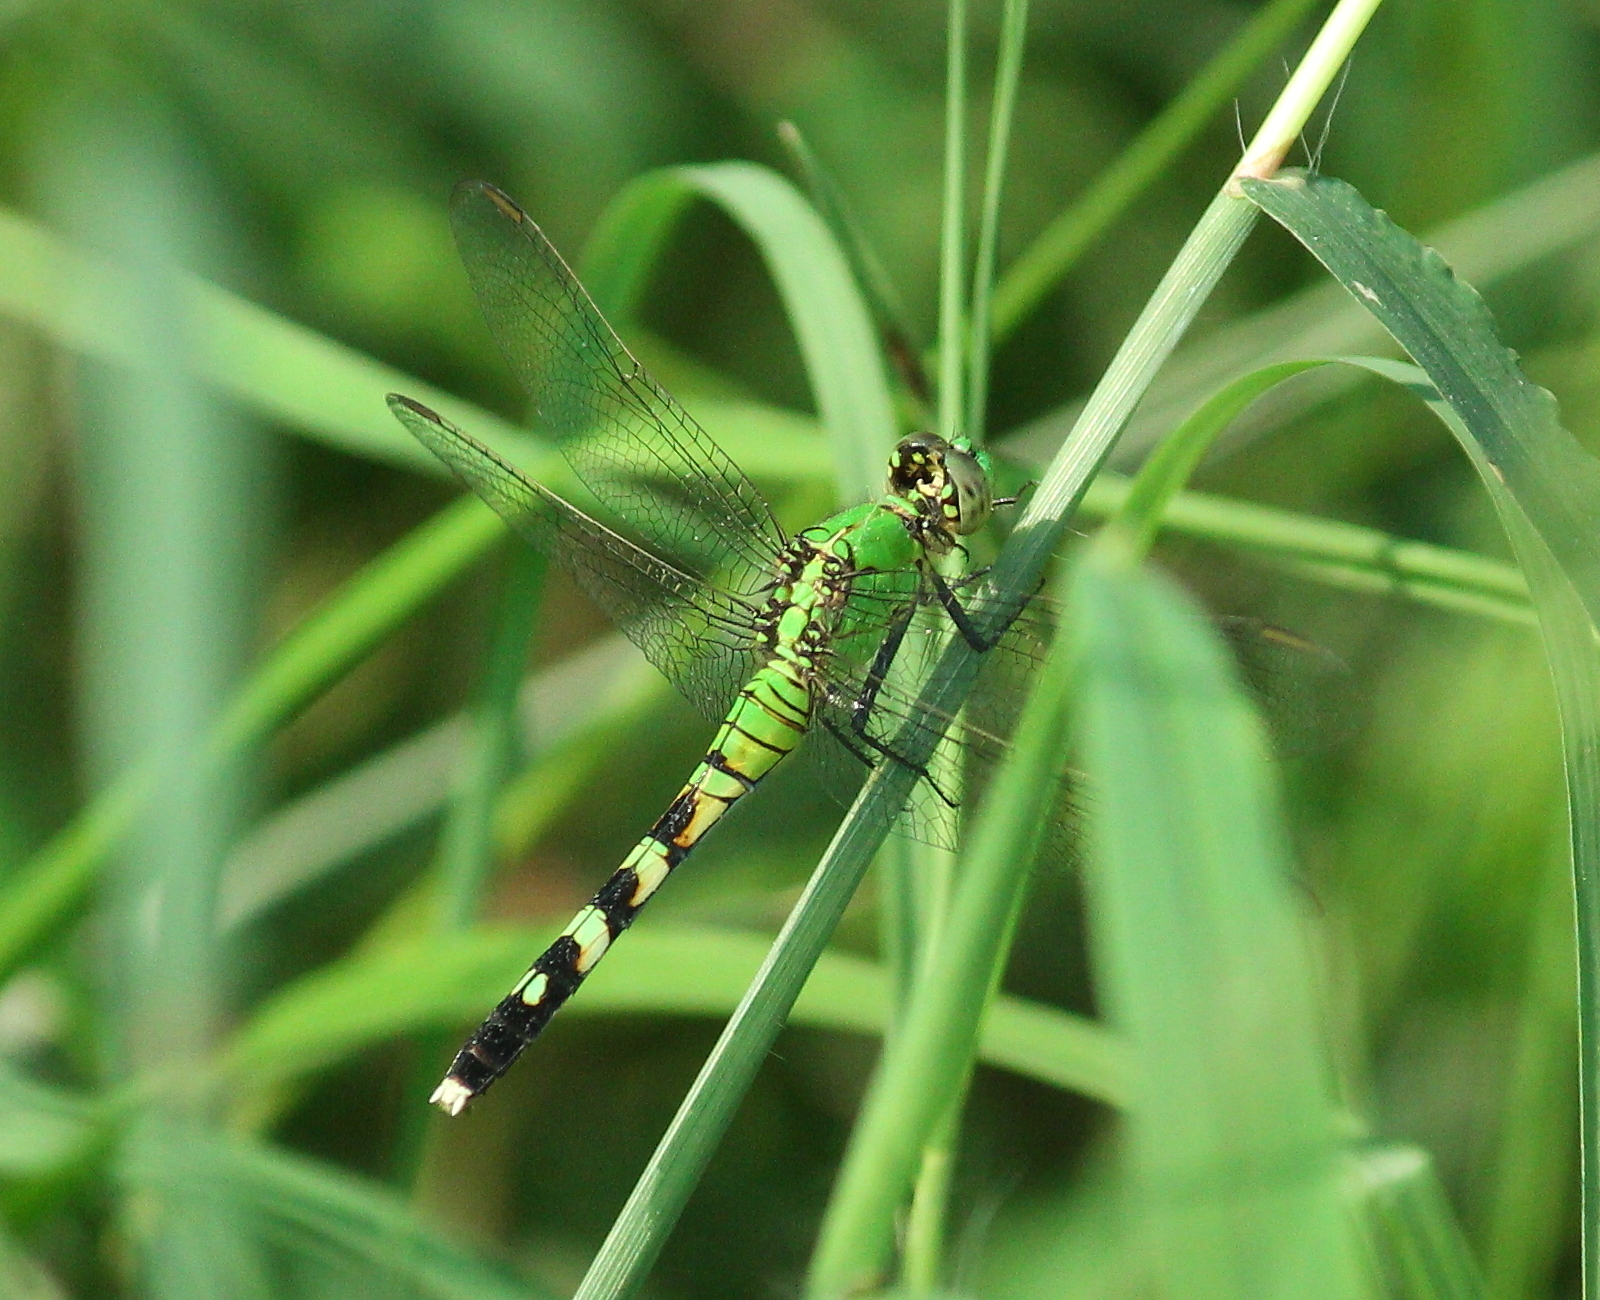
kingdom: Animalia
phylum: Arthropoda
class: Insecta
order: Odonata
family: Libellulidae
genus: Erythemis
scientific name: Erythemis simplicicollis
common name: Eastern pondhawk
